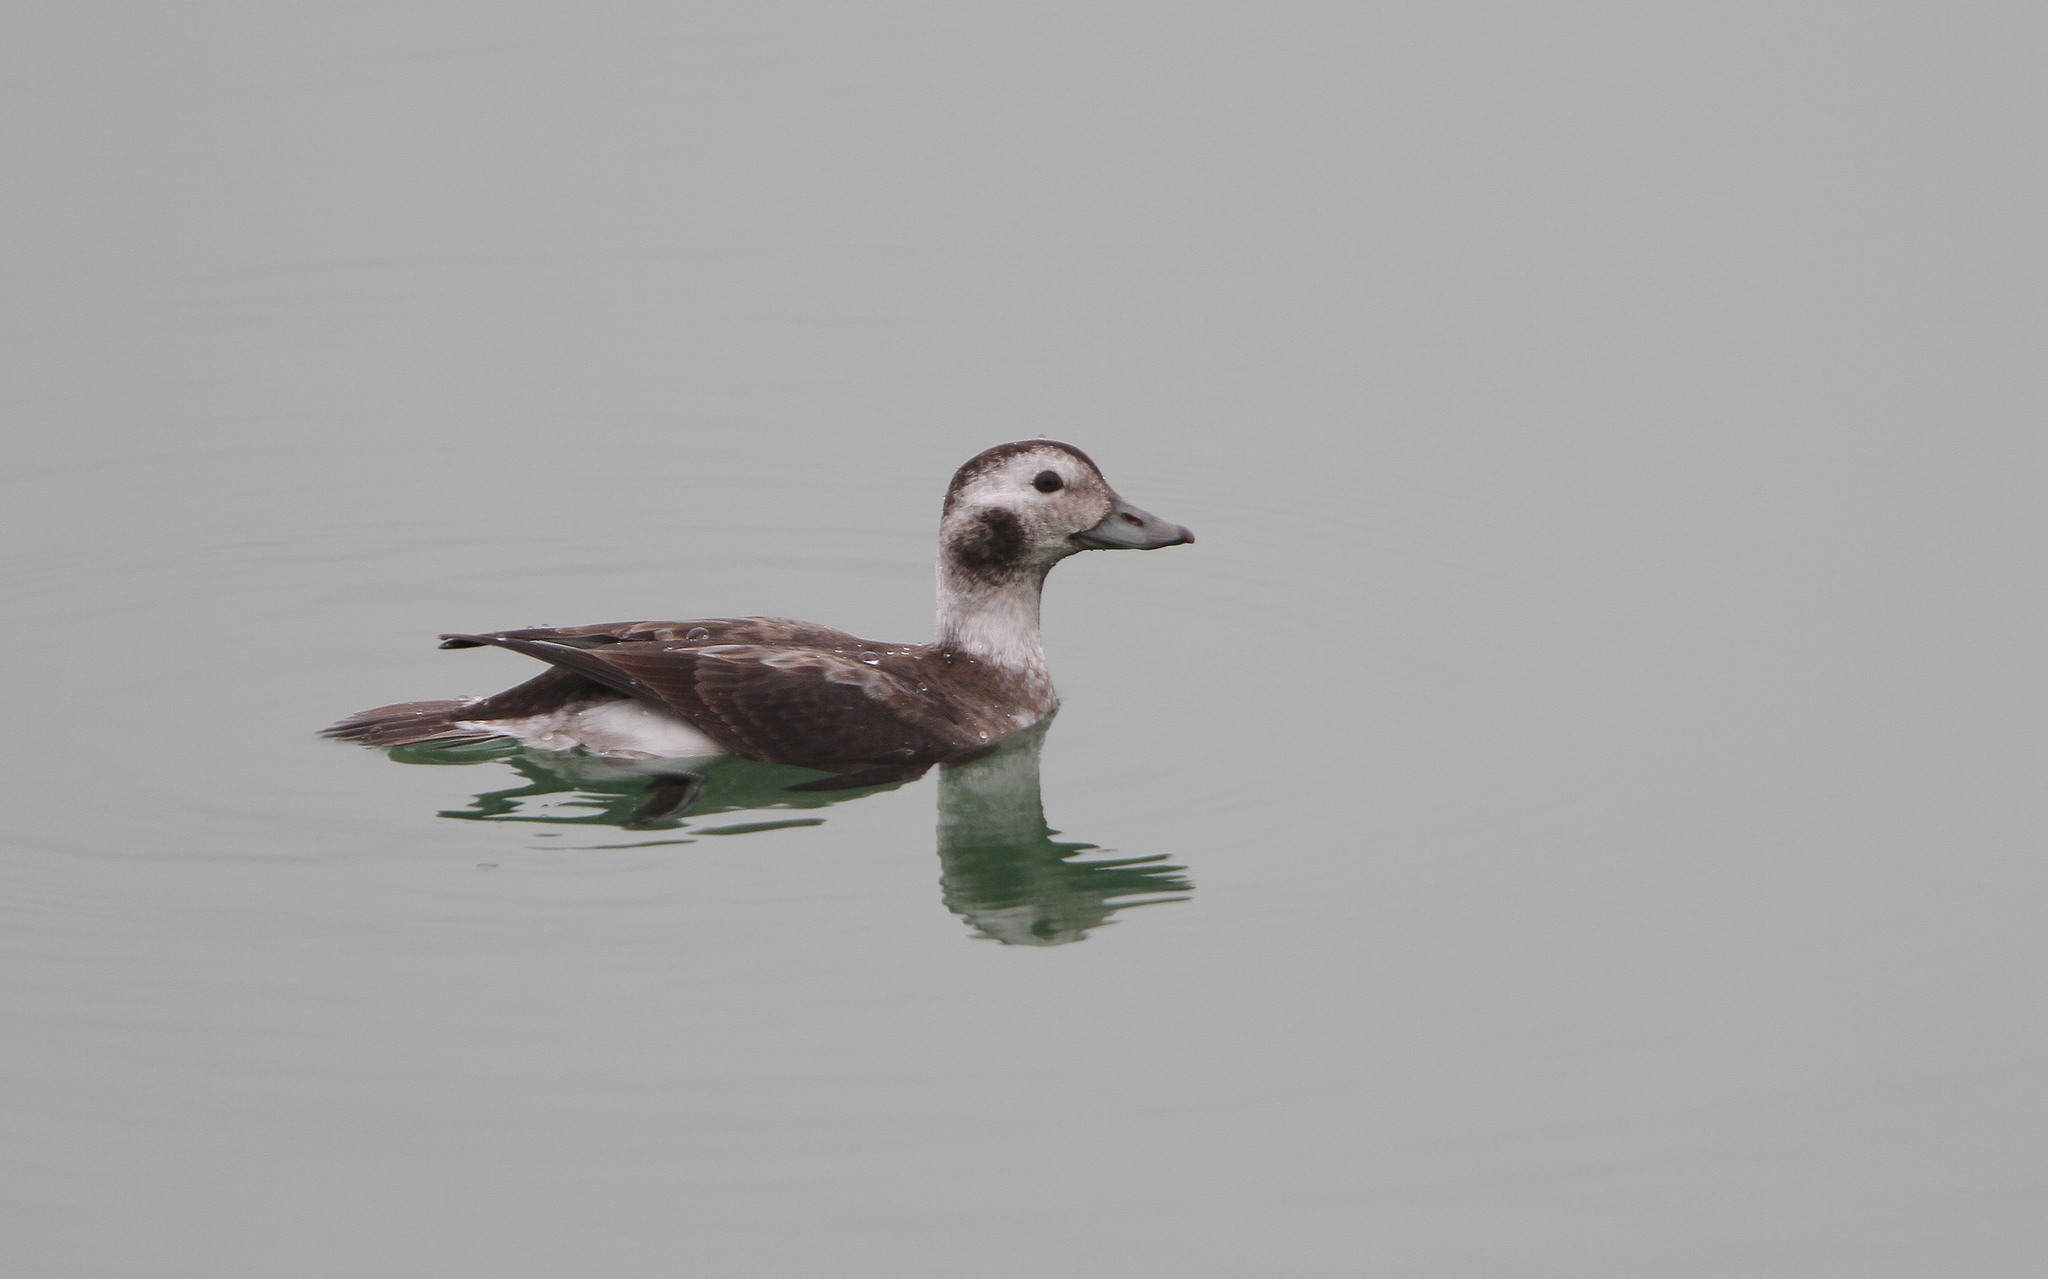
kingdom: Animalia
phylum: Chordata
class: Aves
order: Anseriformes
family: Anatidae
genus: Clangula
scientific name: Clangula hyemalis
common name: Long-tailed duck
